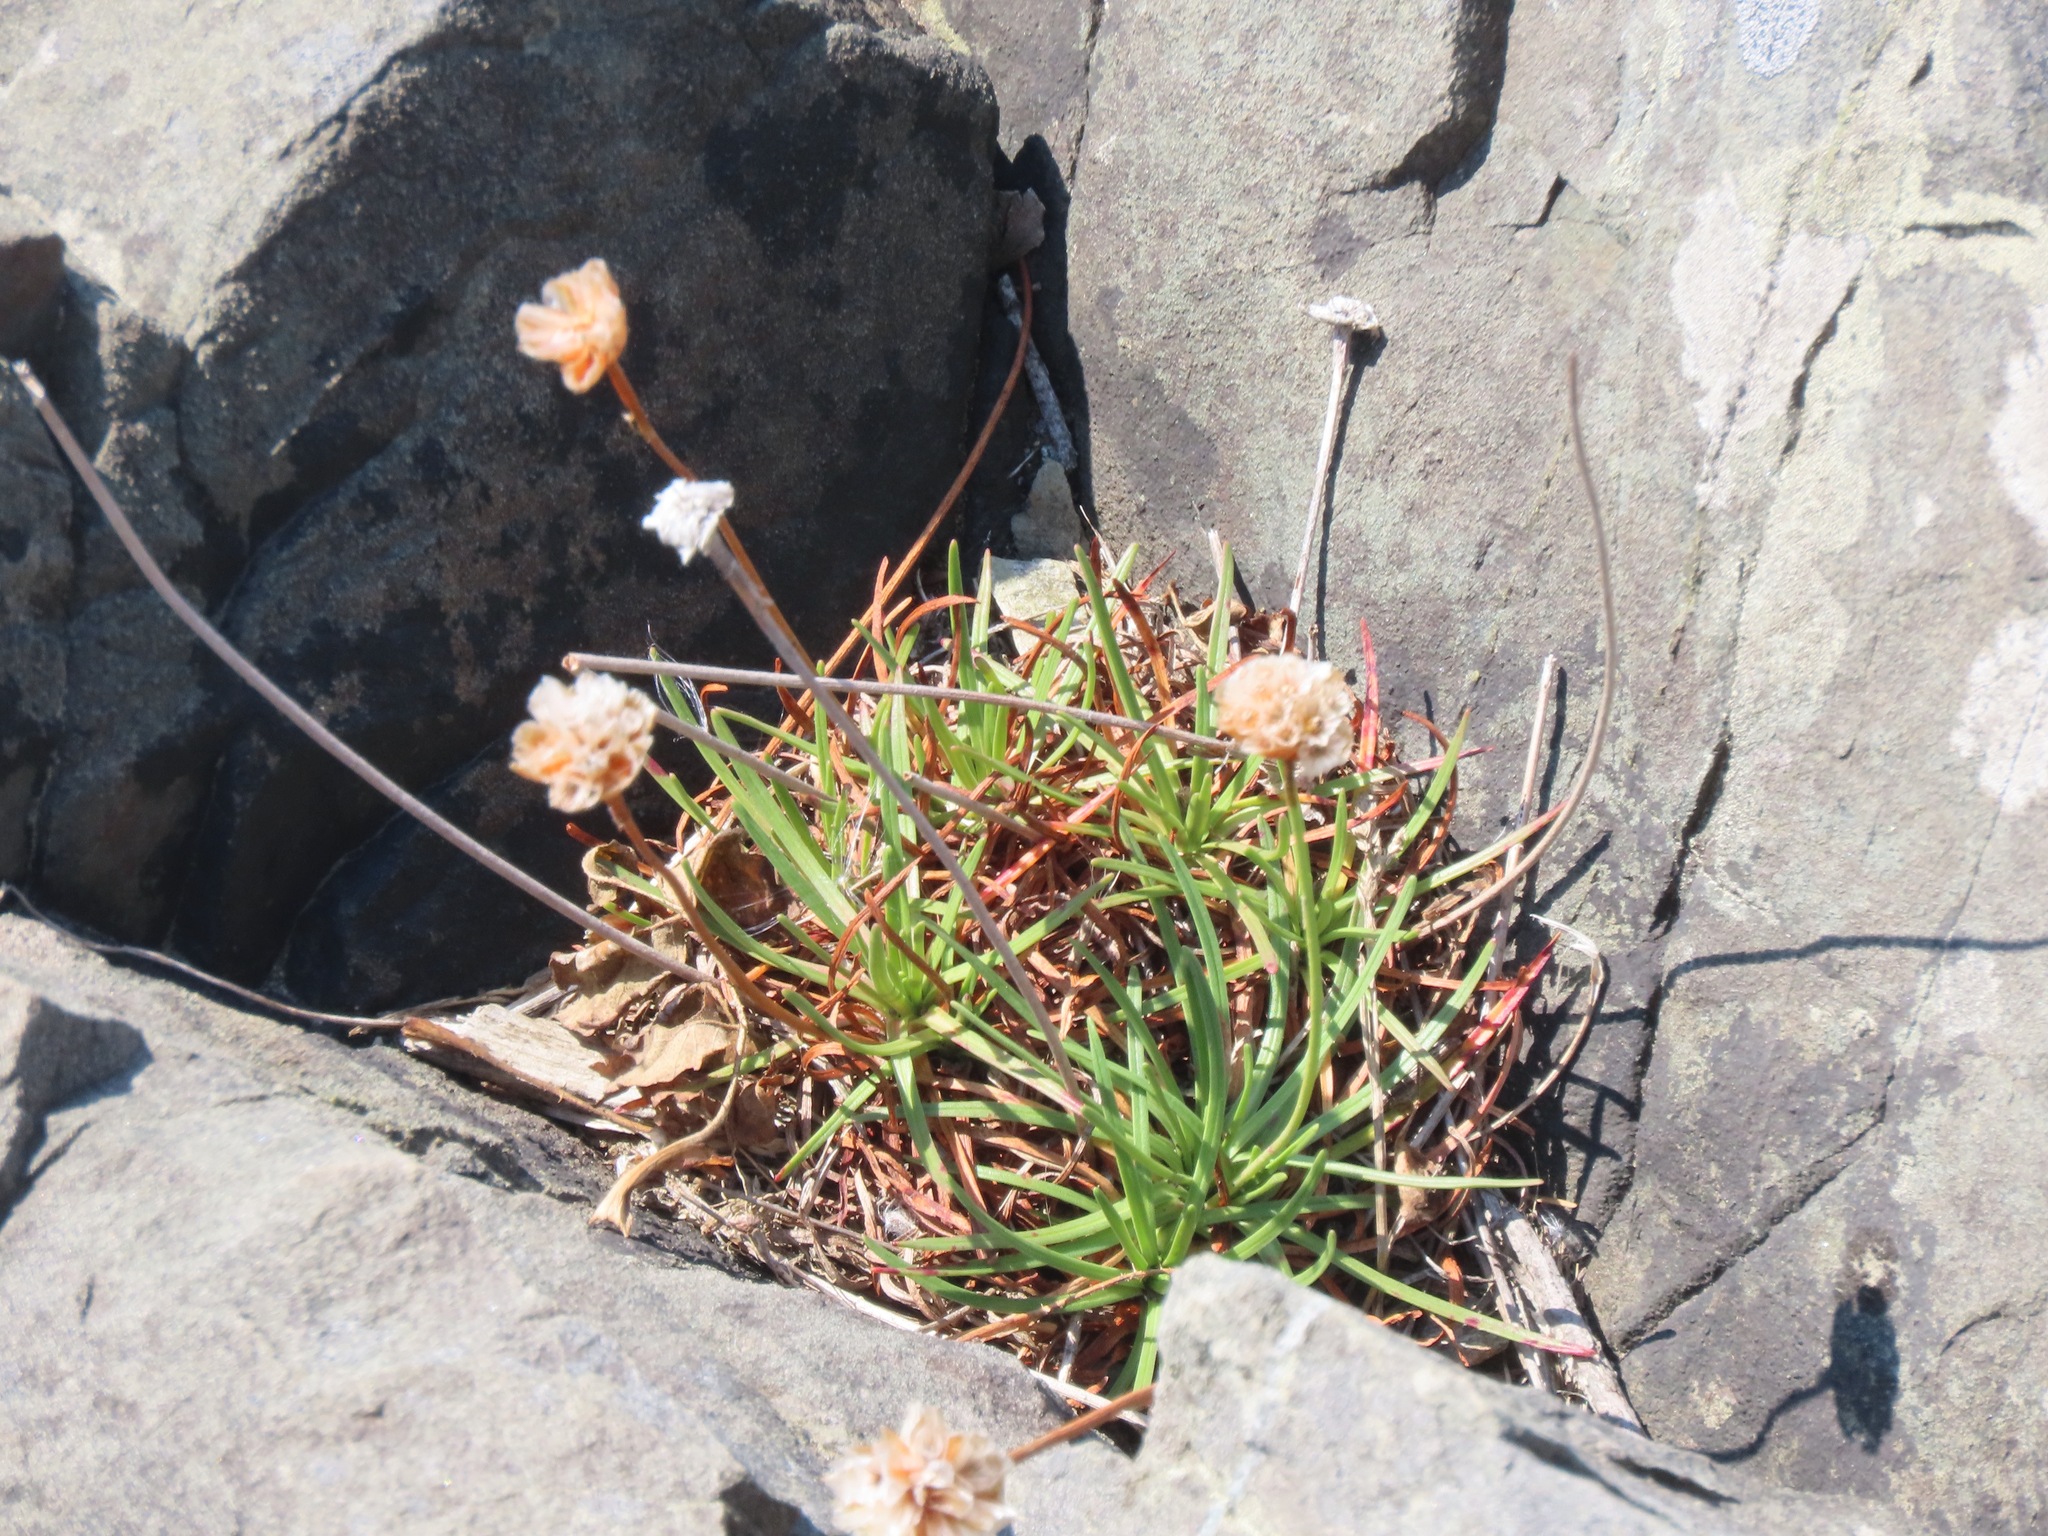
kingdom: Plantae
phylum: Tracheophyta
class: Magnoliopsida
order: Caryophyllales
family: Plumbaginaceae
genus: Armeria
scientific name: Armeria maritima
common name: Thrift
